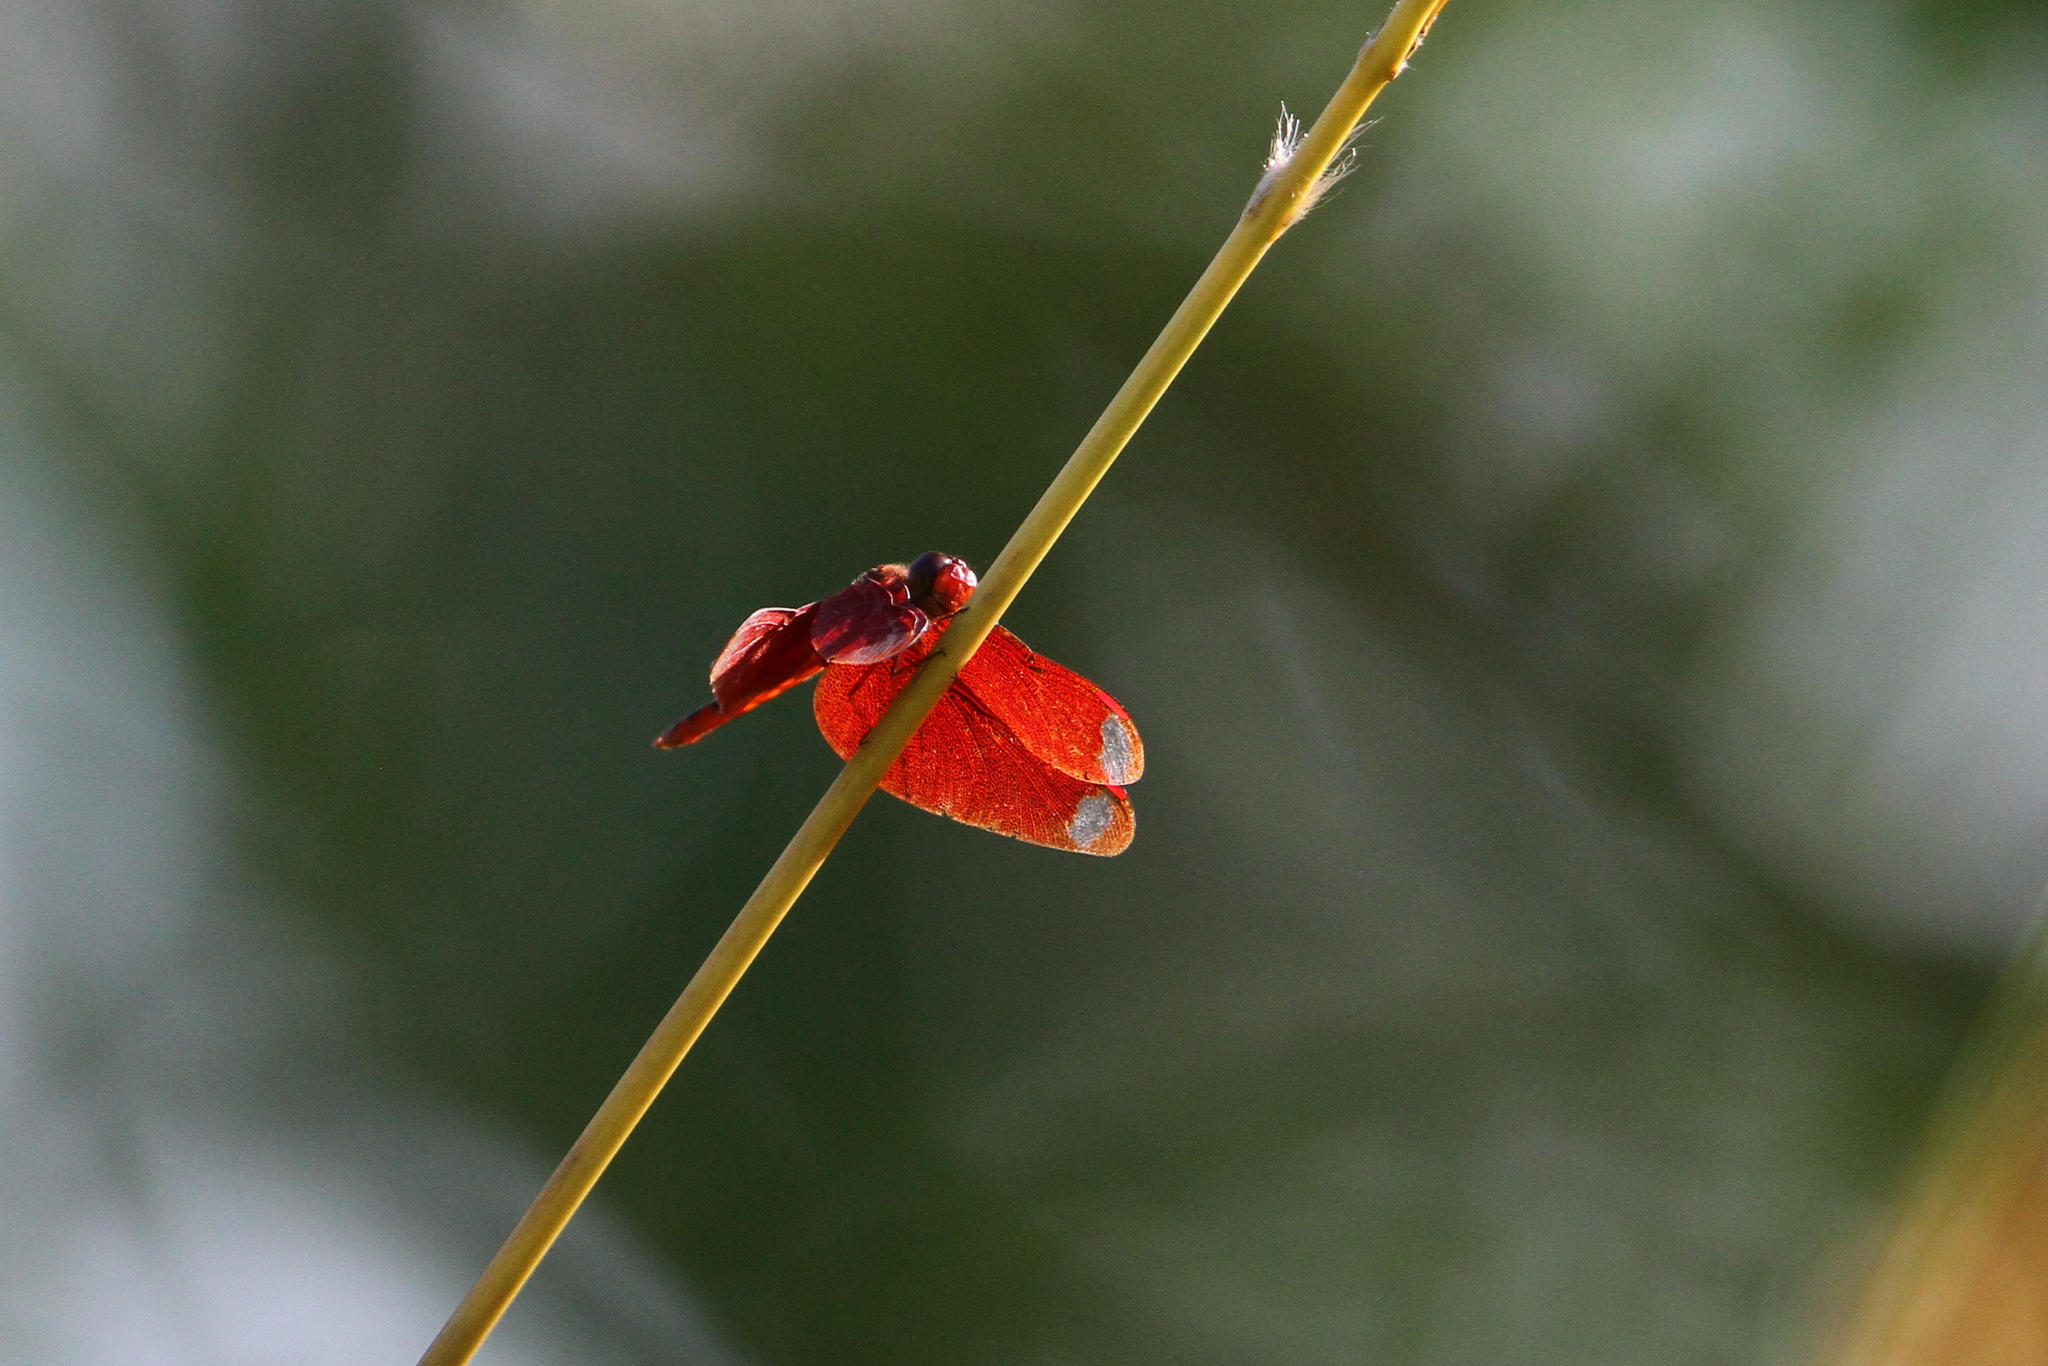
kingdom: Animalia
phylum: Arthropoda
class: Insecta
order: Odonata
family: Libellulidae
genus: Neurothemis
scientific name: Neurothemis fulvia
